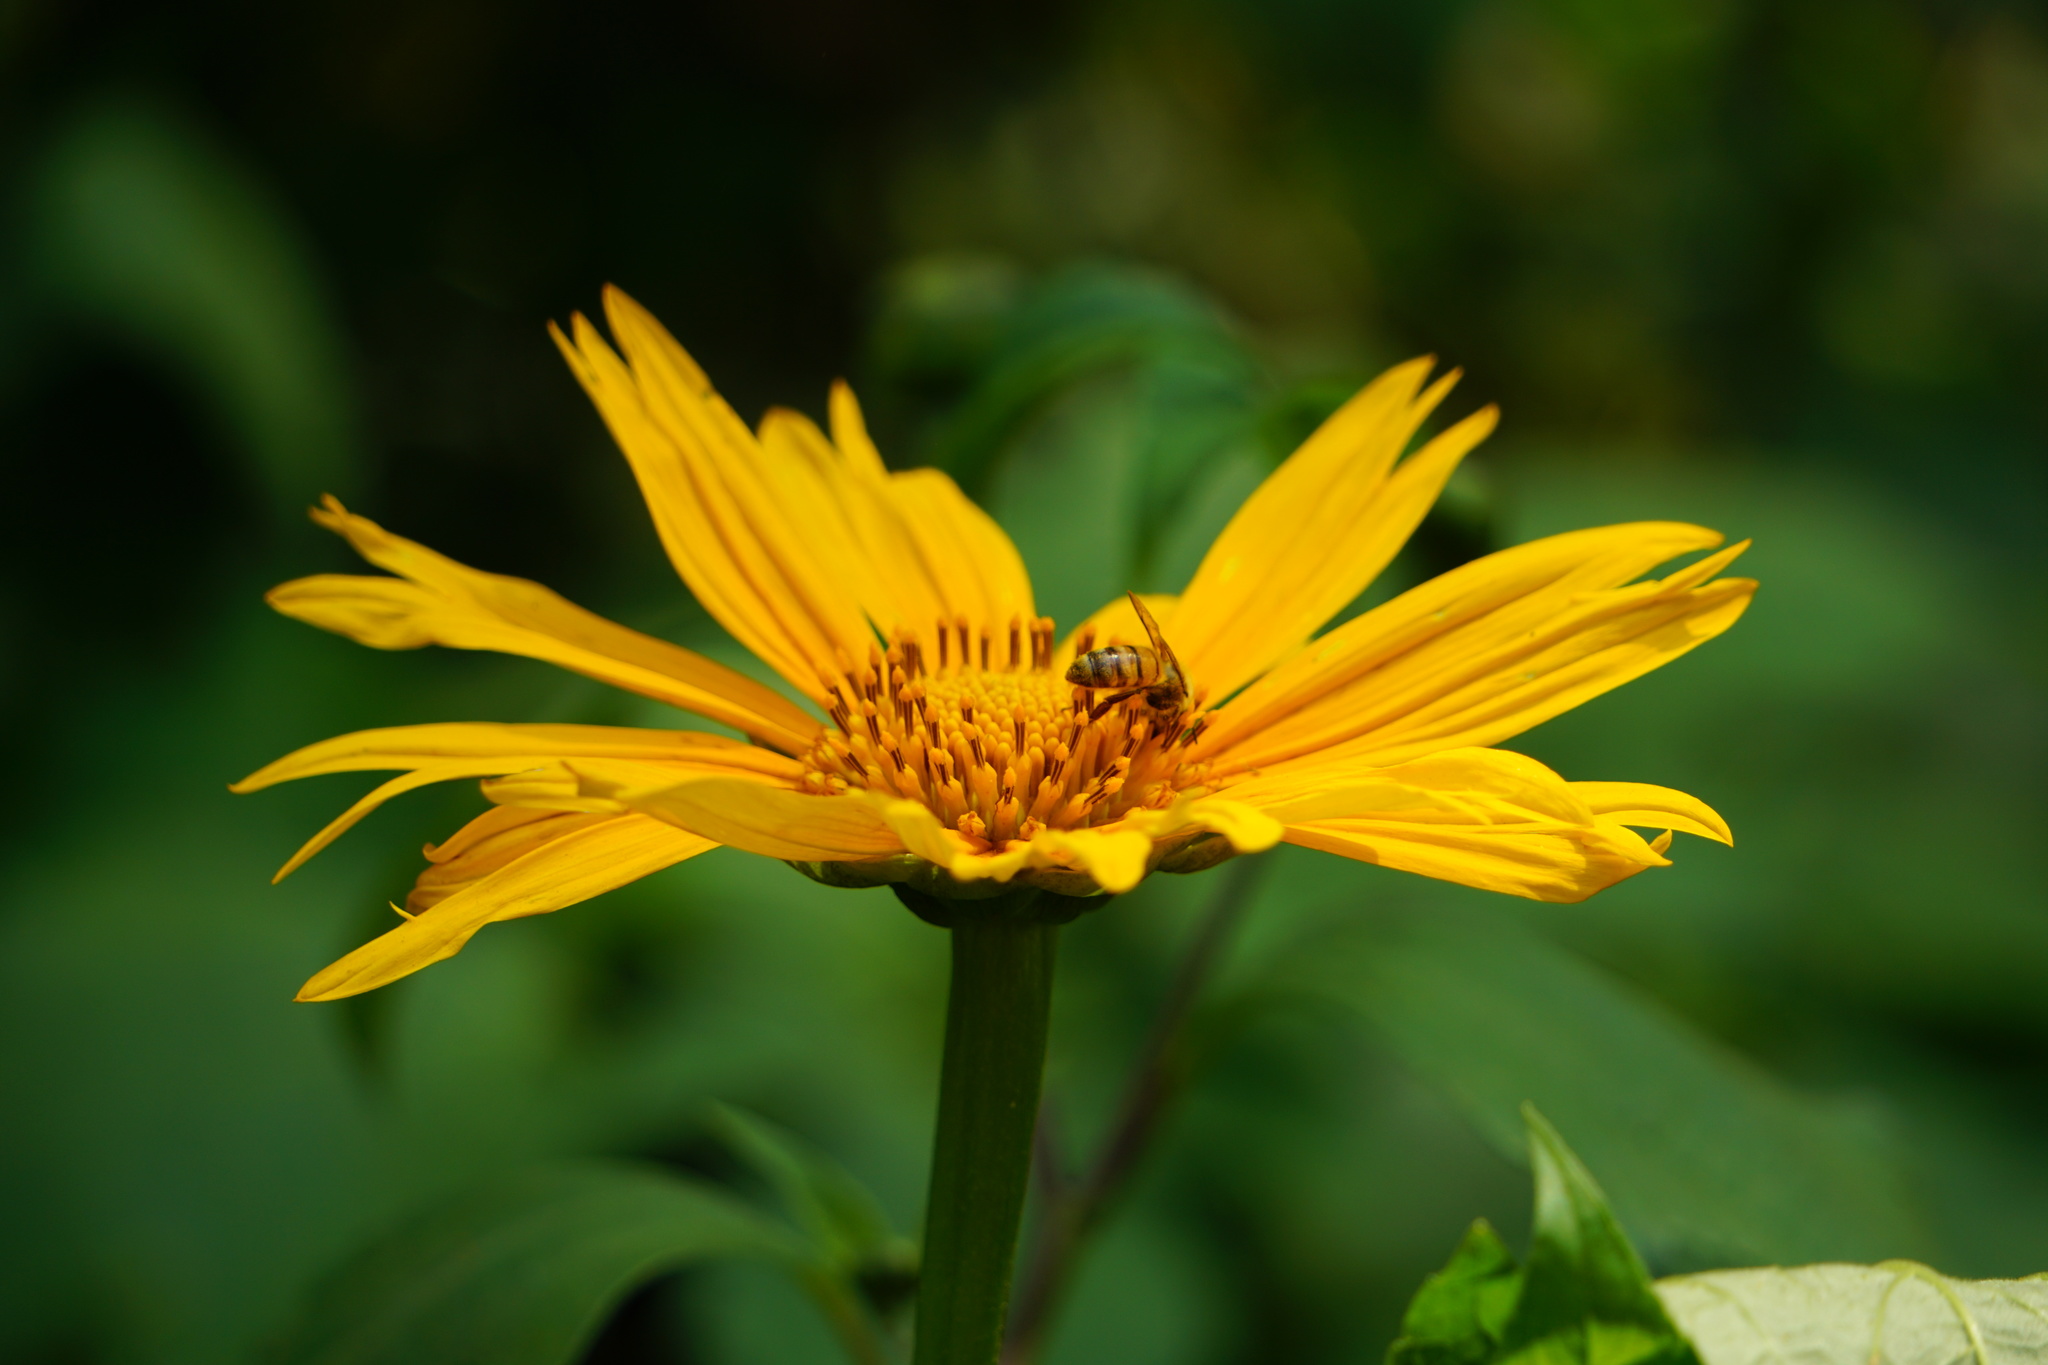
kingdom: Plantae
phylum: Tracheophyta
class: Magnoliopsida
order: Asterales
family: Asteraceae
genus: Tithonia
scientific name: Tithonia diversifolia
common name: Tree marigold
